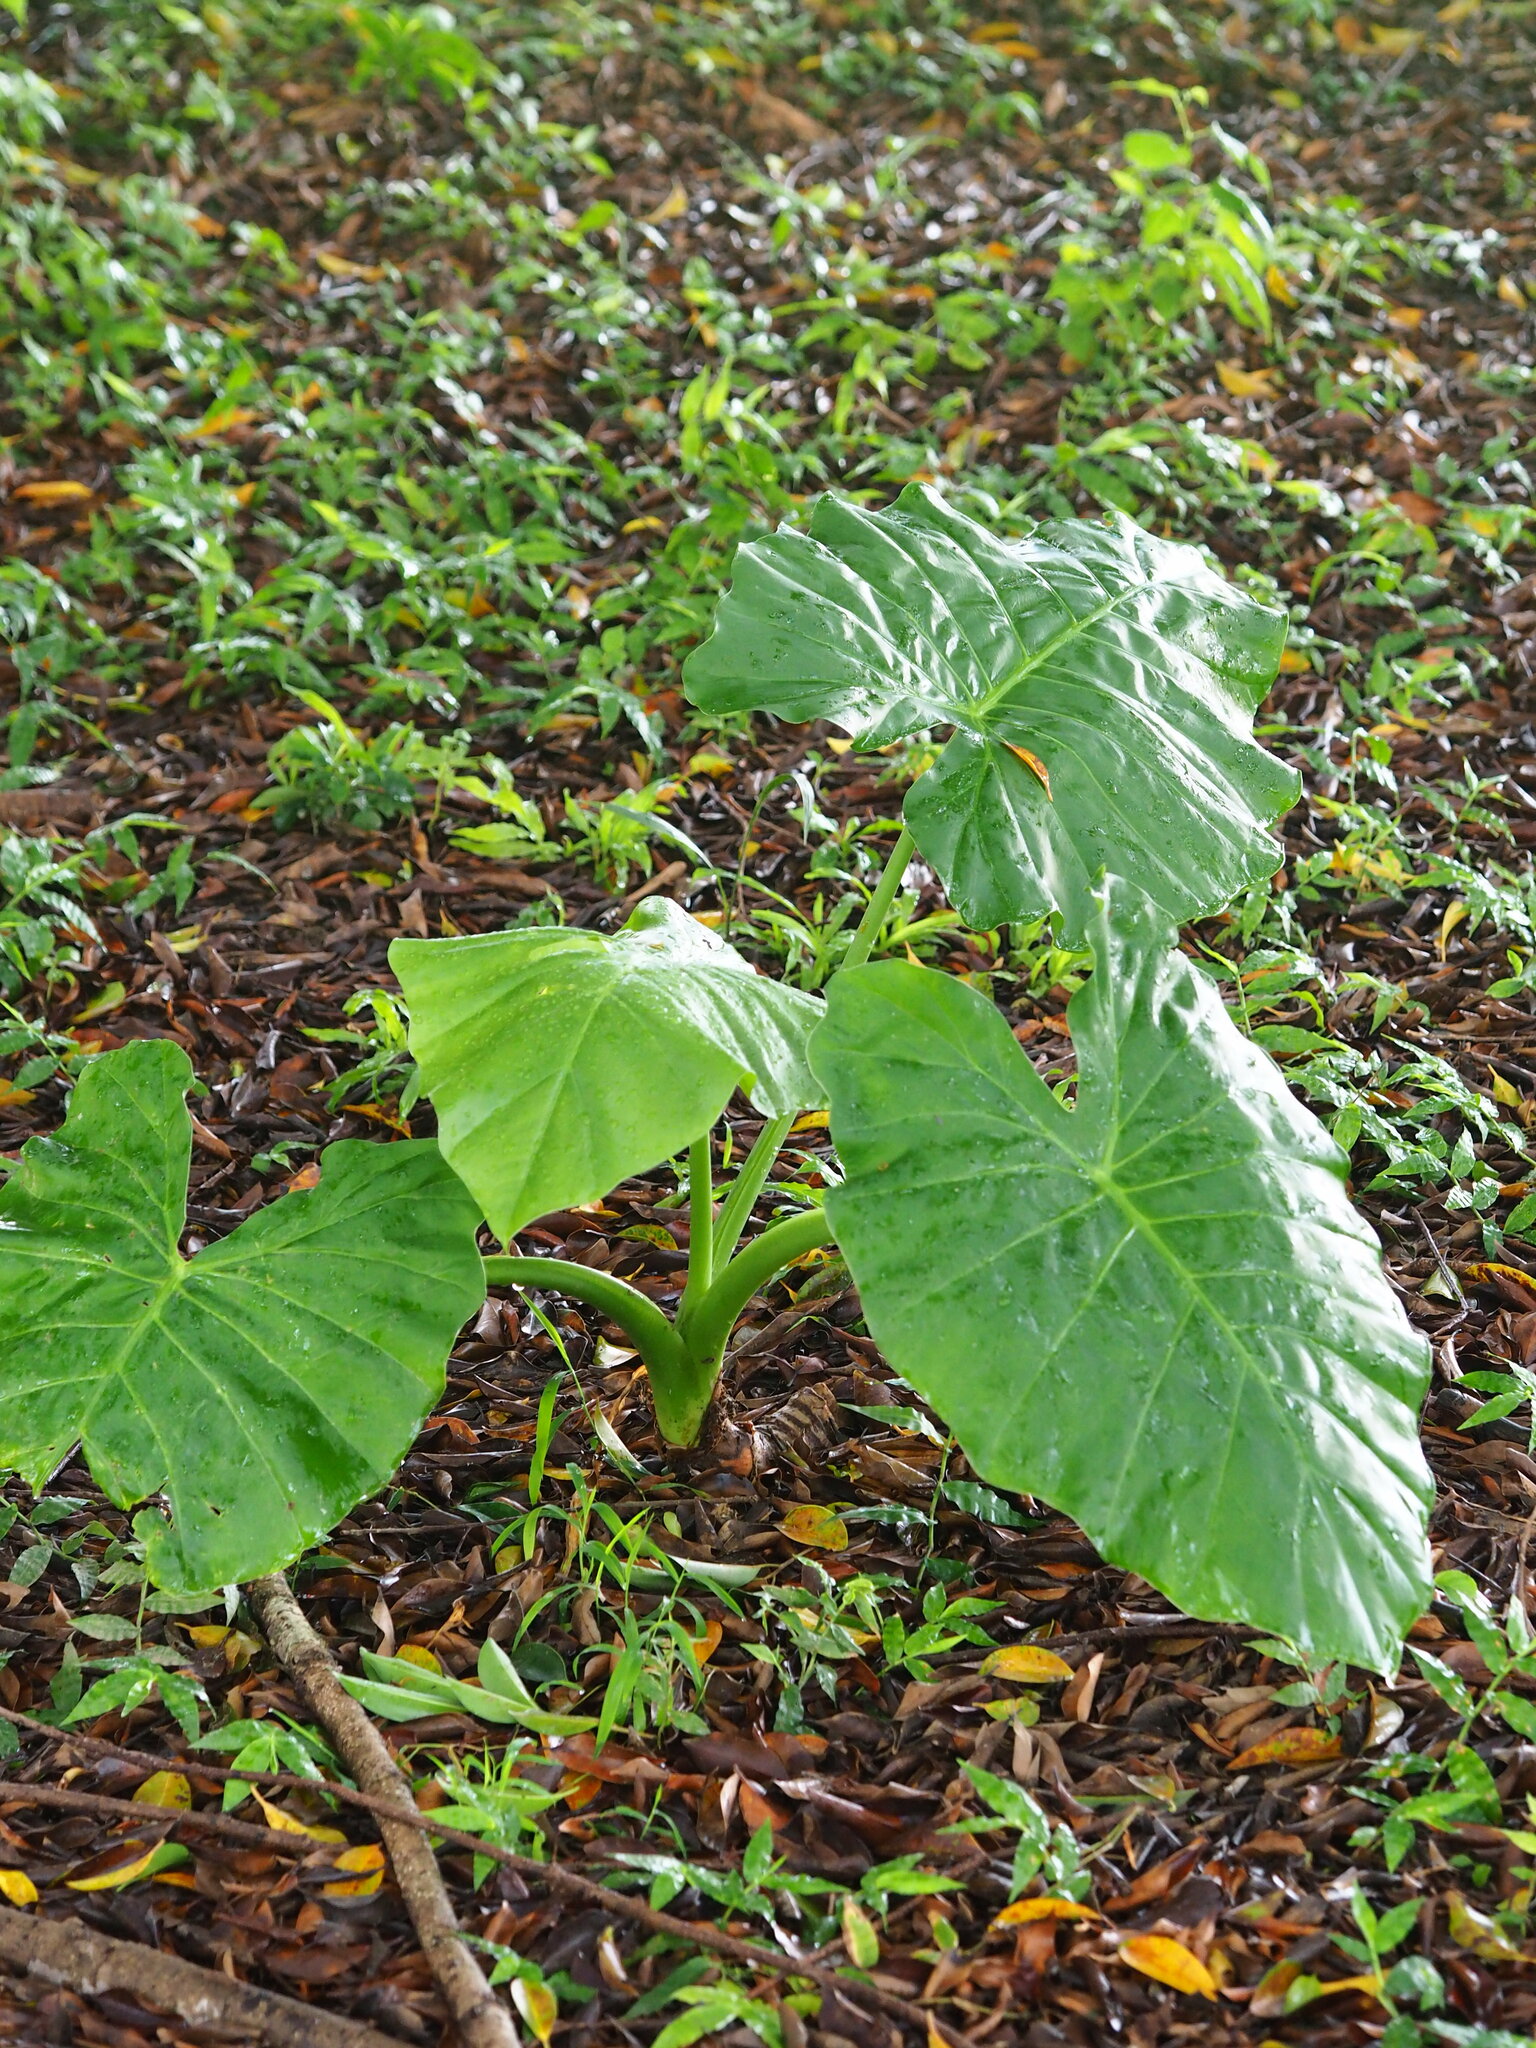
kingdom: Plantae
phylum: Tracheophyta
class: Liliopsida
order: Alismatales
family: Araceae
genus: Alocasia
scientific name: Alocasia odora
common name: Asian taro
